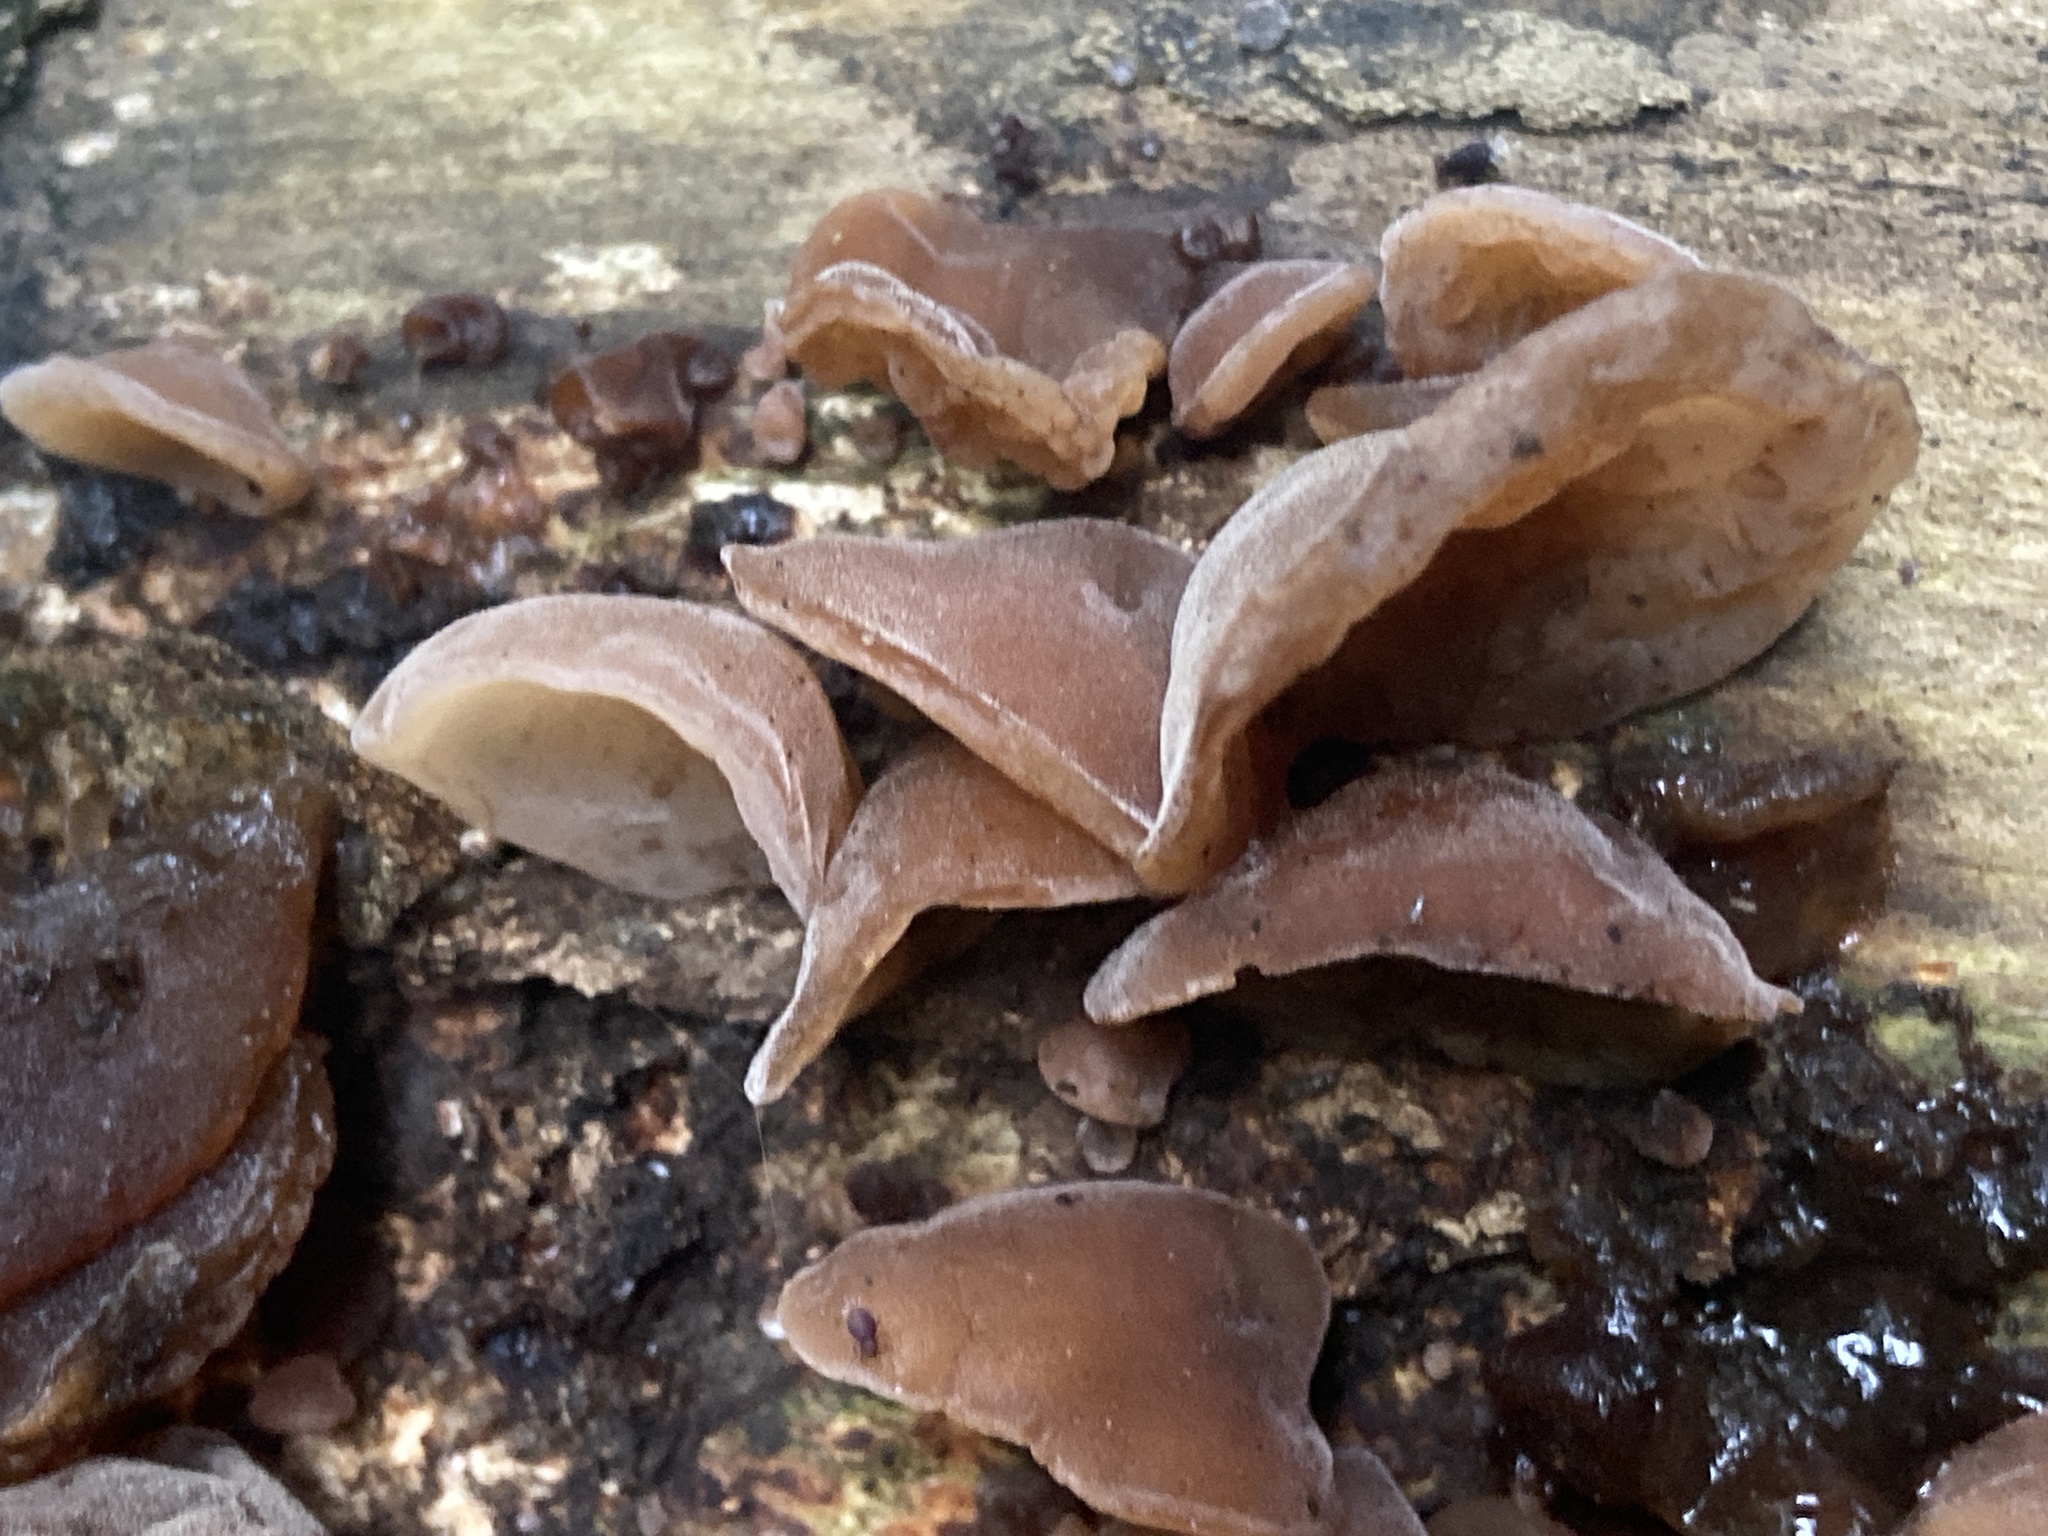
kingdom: Fungi
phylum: Basidiomycota
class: Agaricomycetes
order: Auriculariales
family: Auriculariaceae
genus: Auricularia
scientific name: Auricularia auricula-judae
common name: Jelly ear
